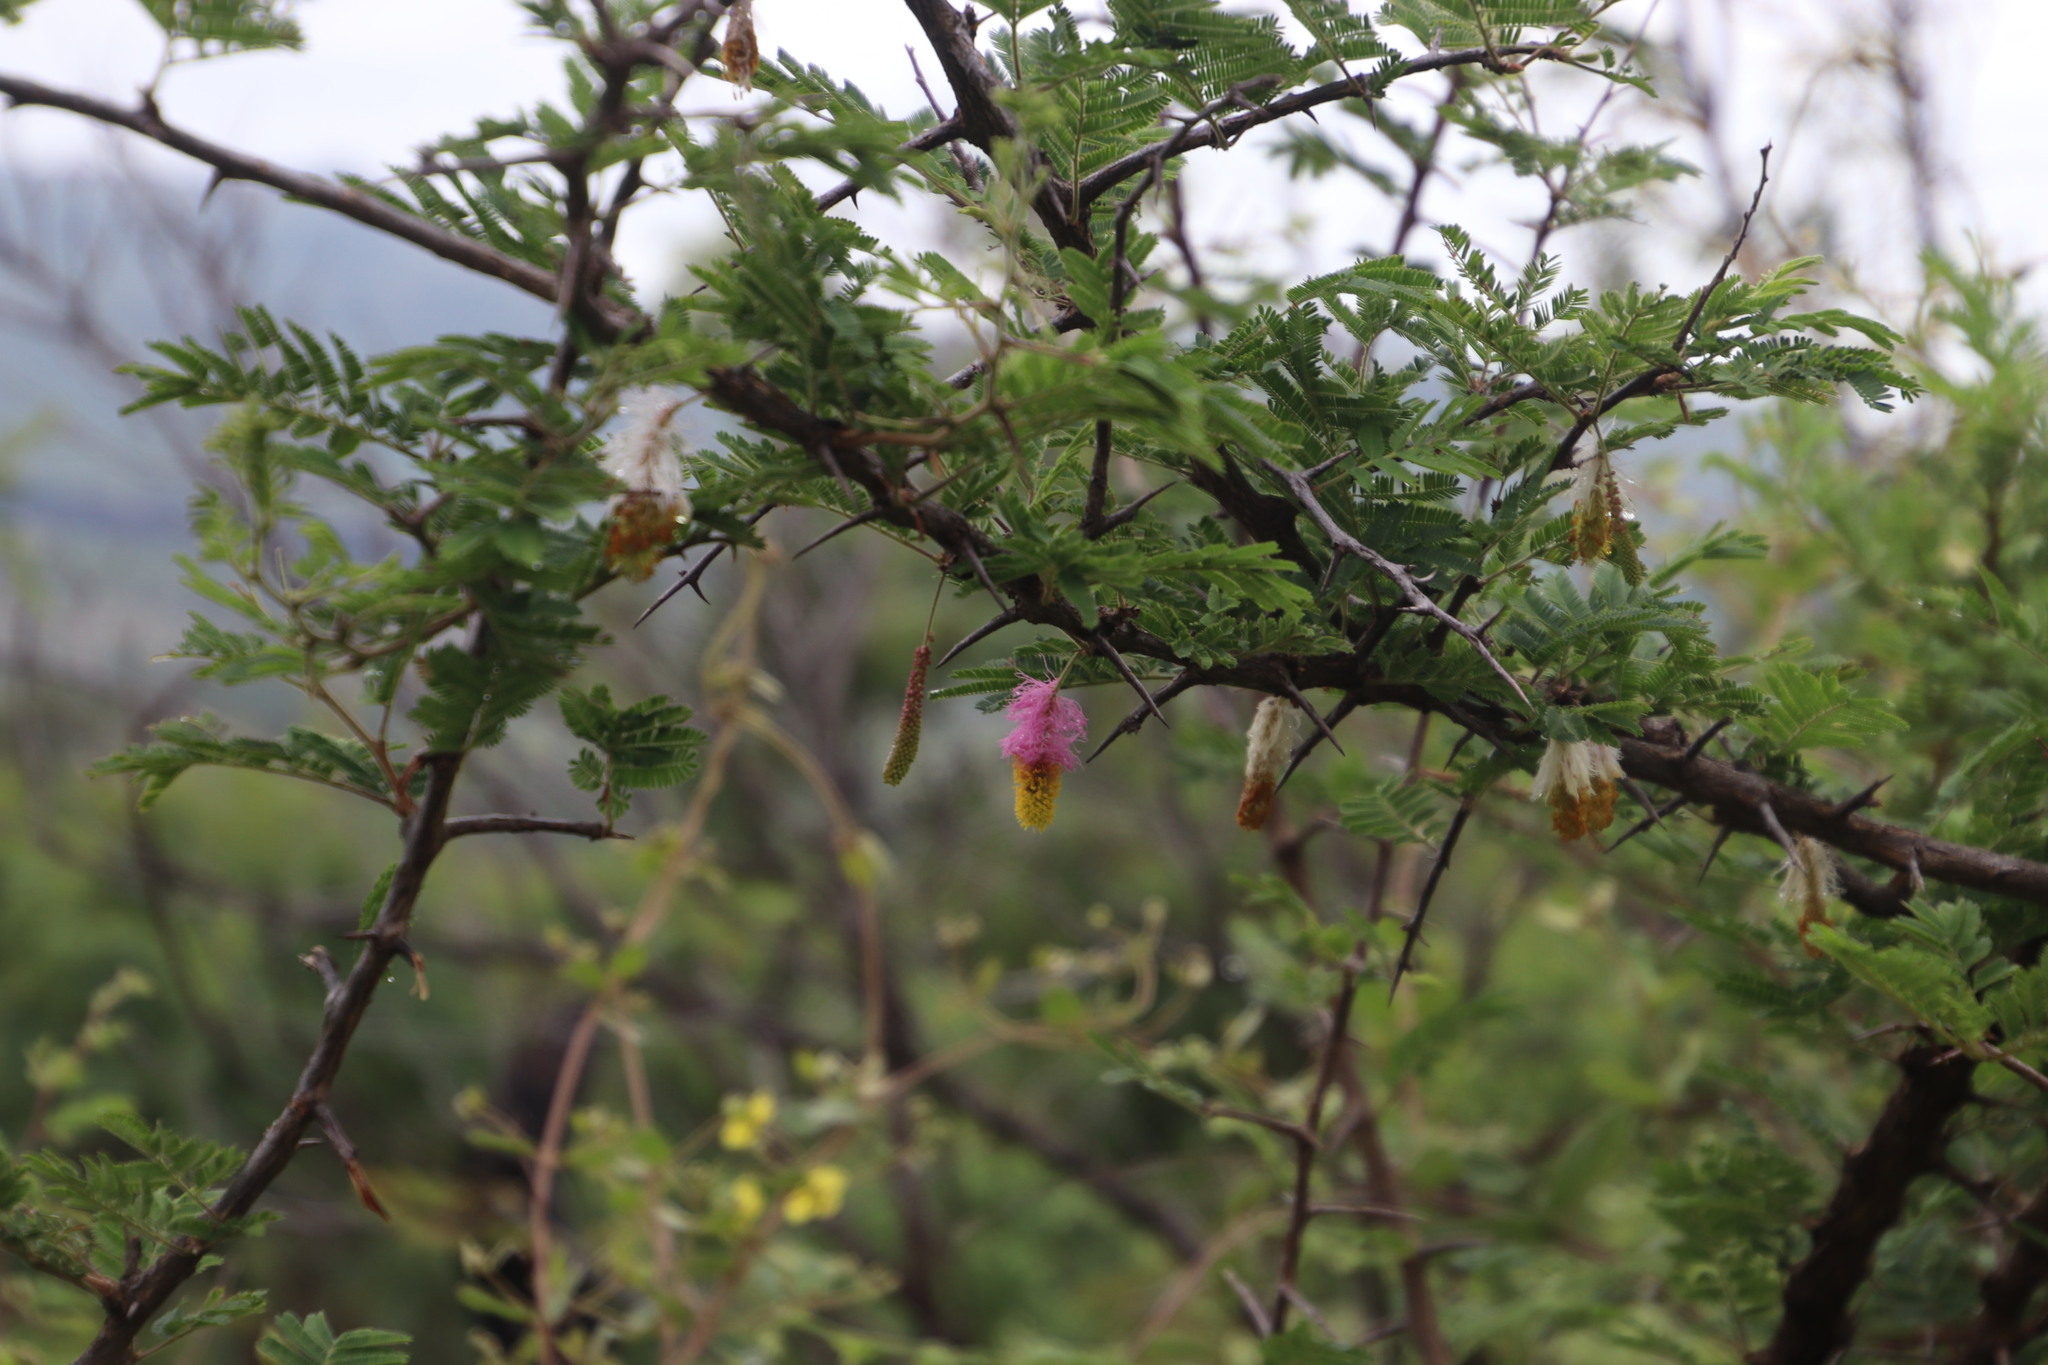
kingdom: Plantae
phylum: Tracheophyta
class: Magnoliopsida
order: Fabales
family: Fabaceae
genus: Dichrostachys
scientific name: Dichrostachys cinerea
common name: Sicklebush
